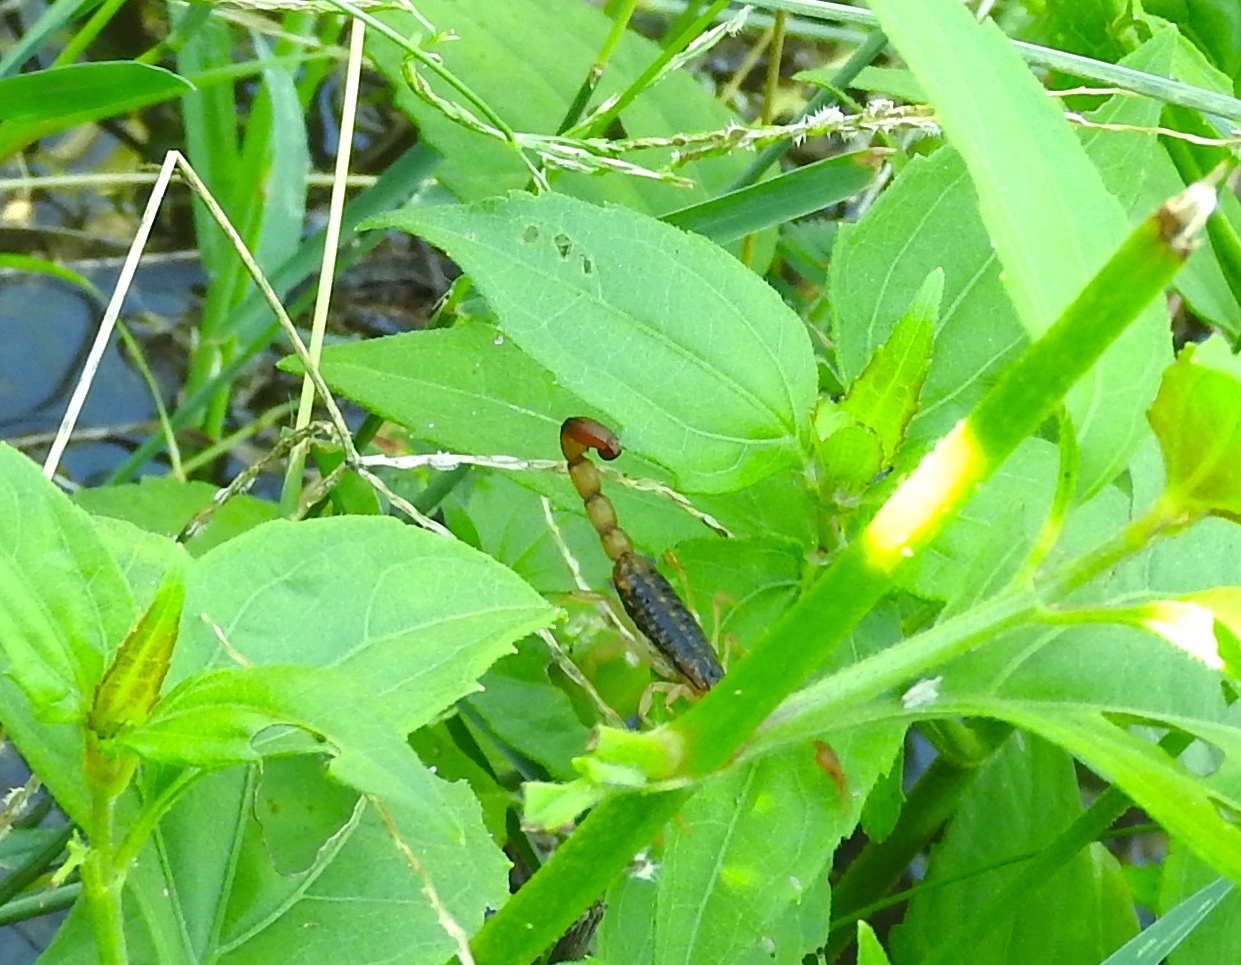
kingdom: Animalia
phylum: Arthropoda
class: Arachnida
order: Scorpiones
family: Buthidae
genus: Centruroides
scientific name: Centruroides
